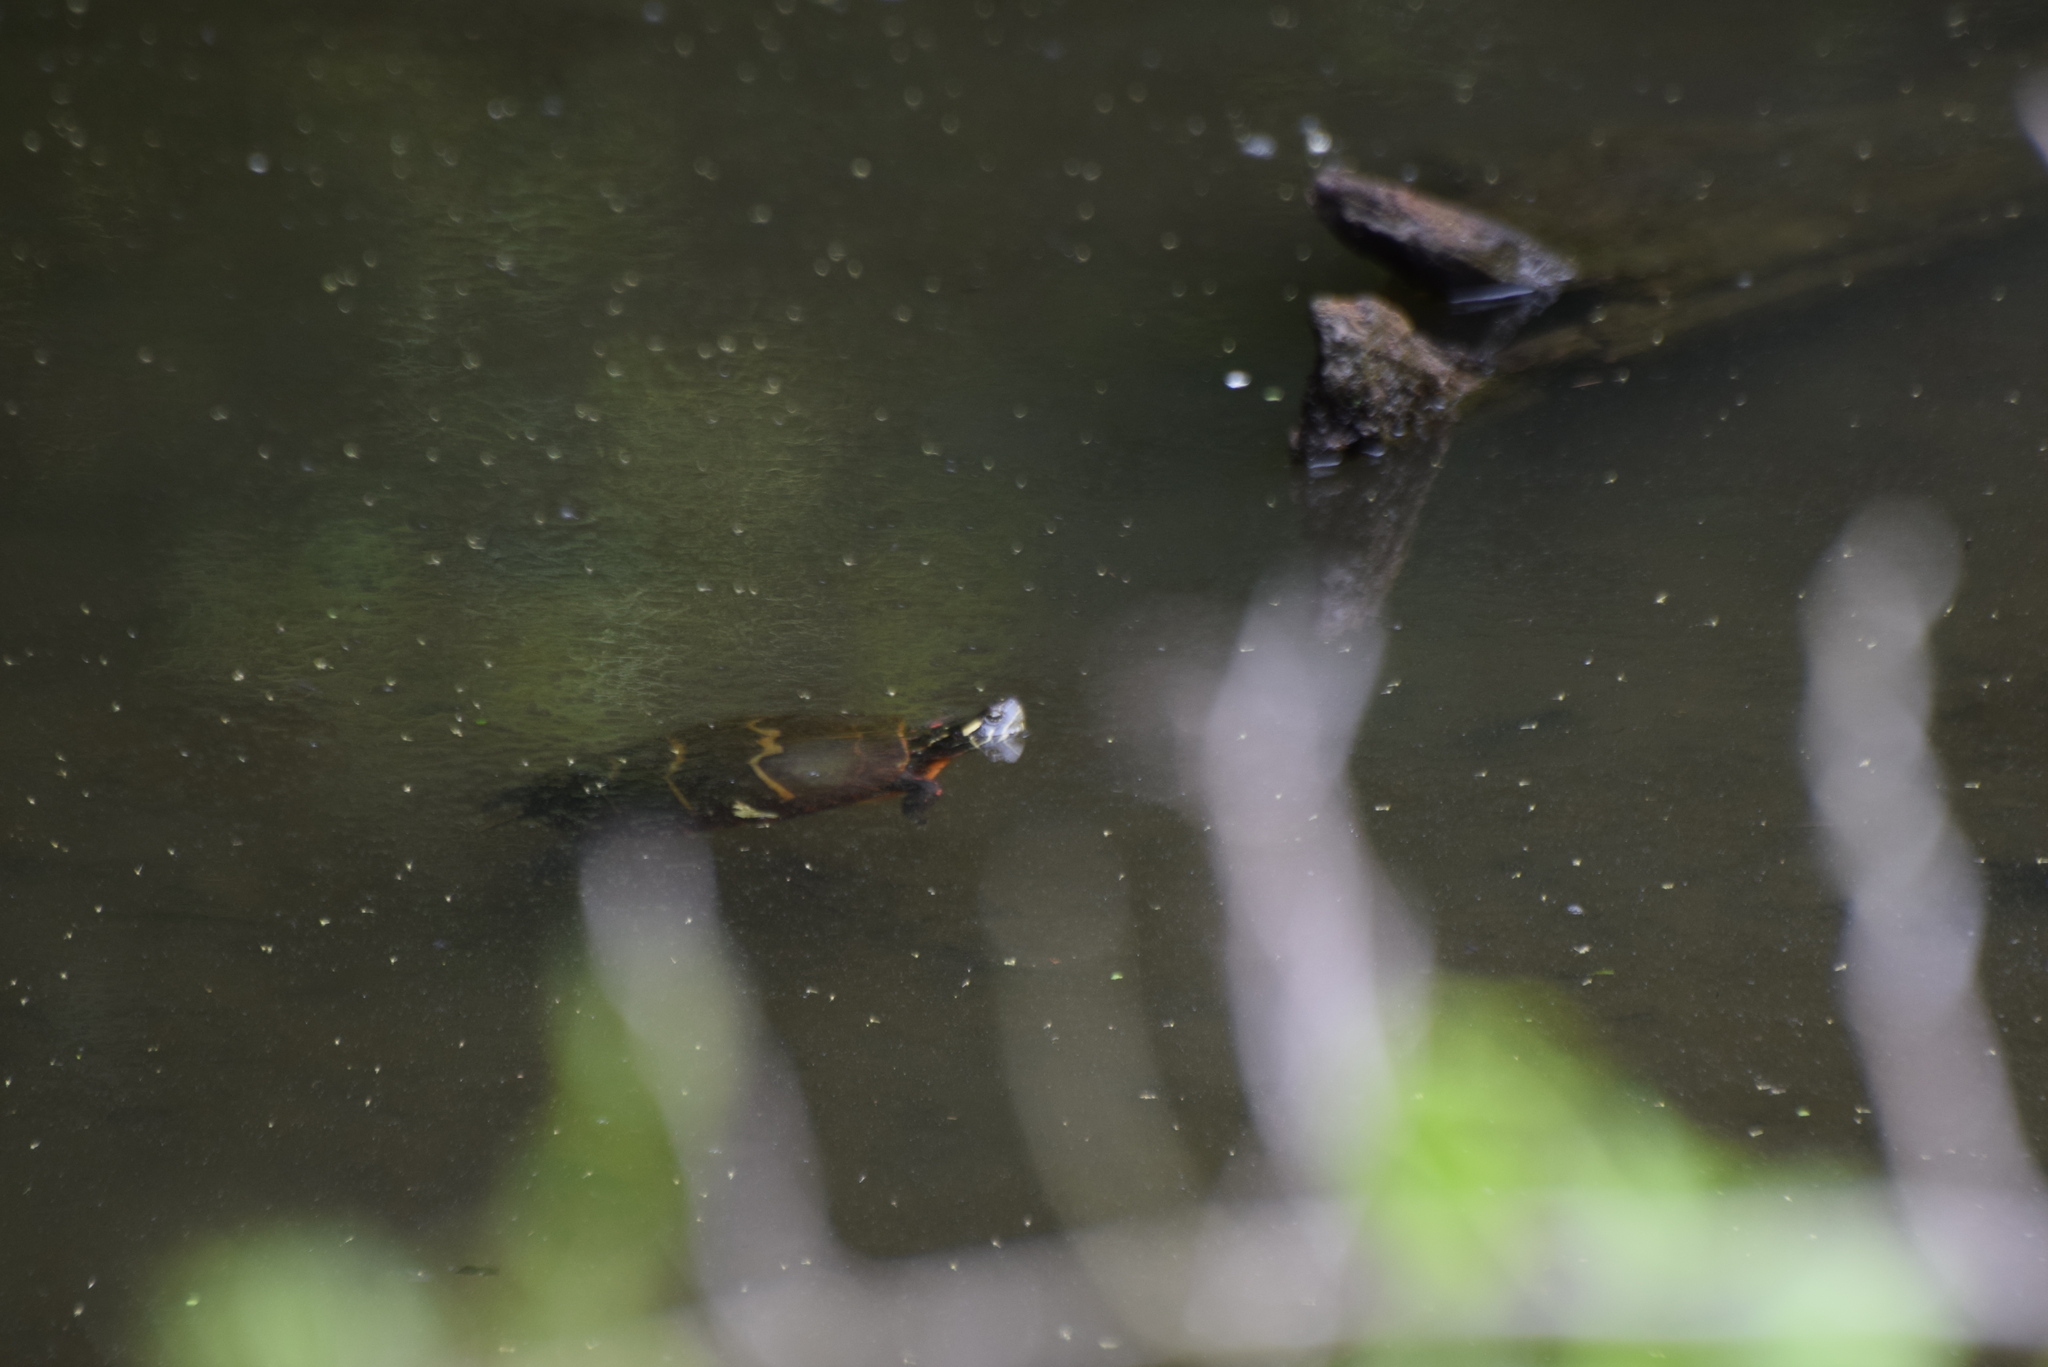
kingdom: Animalia
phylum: Chordata
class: Testudines
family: Emydidae
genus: Chrysemys
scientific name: Chrysemys picta
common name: Painted turtle
